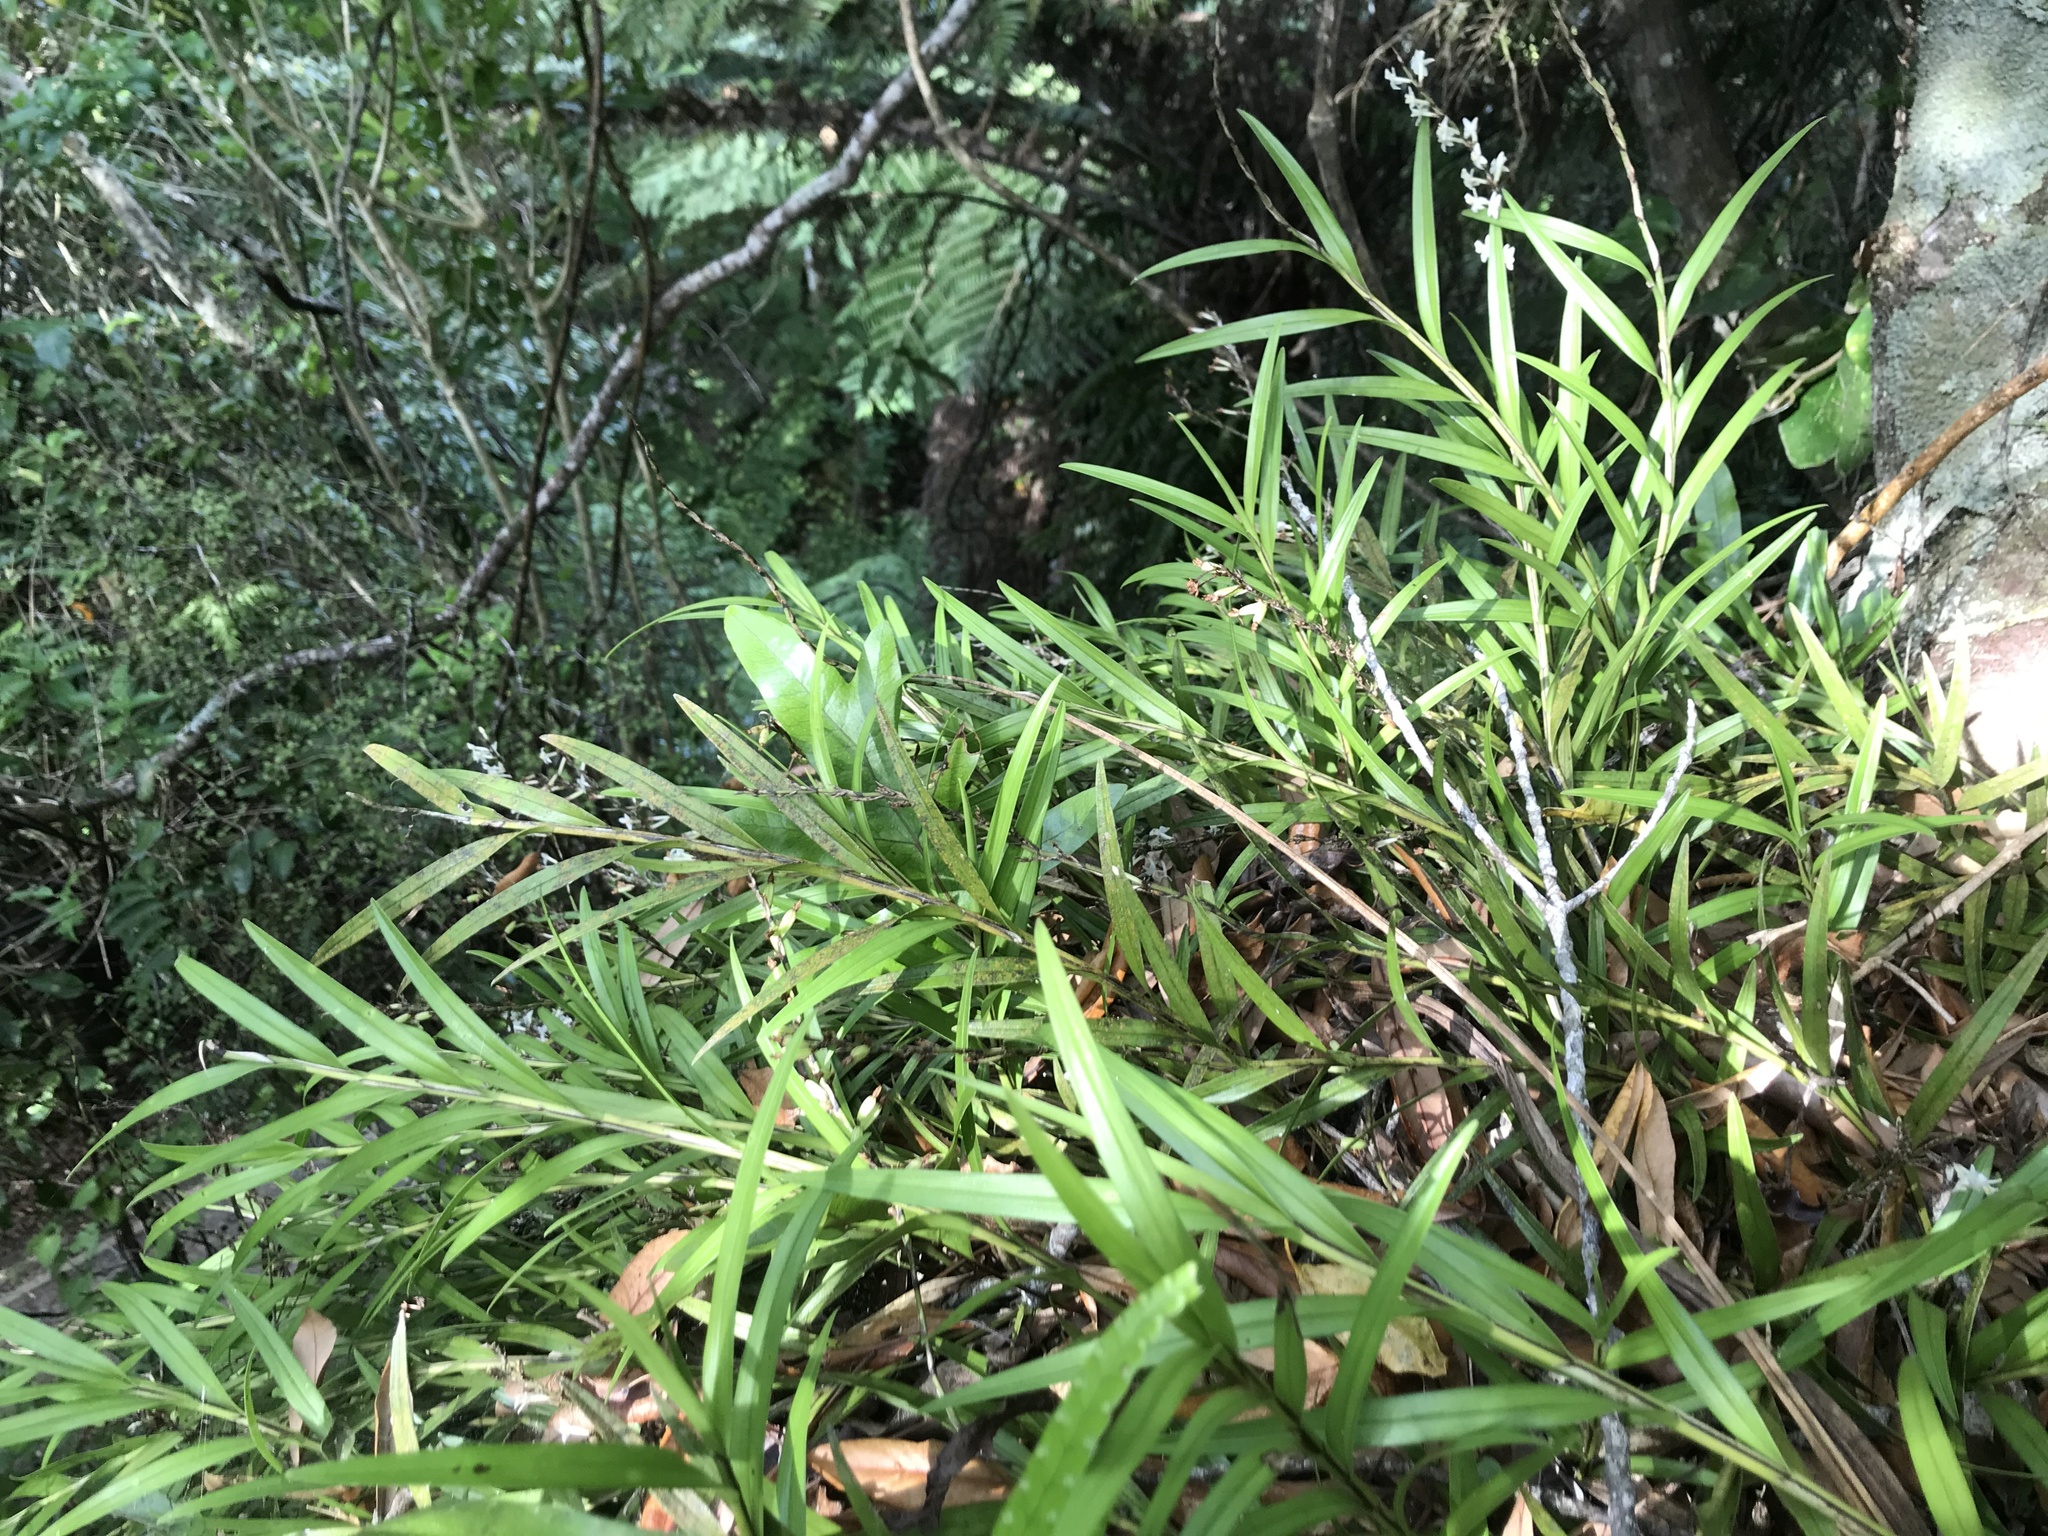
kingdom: Plantae
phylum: Tracheophyta
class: Liliopsida
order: Asparagales
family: Orchidaceae
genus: Earina
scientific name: Earina autumnalis
